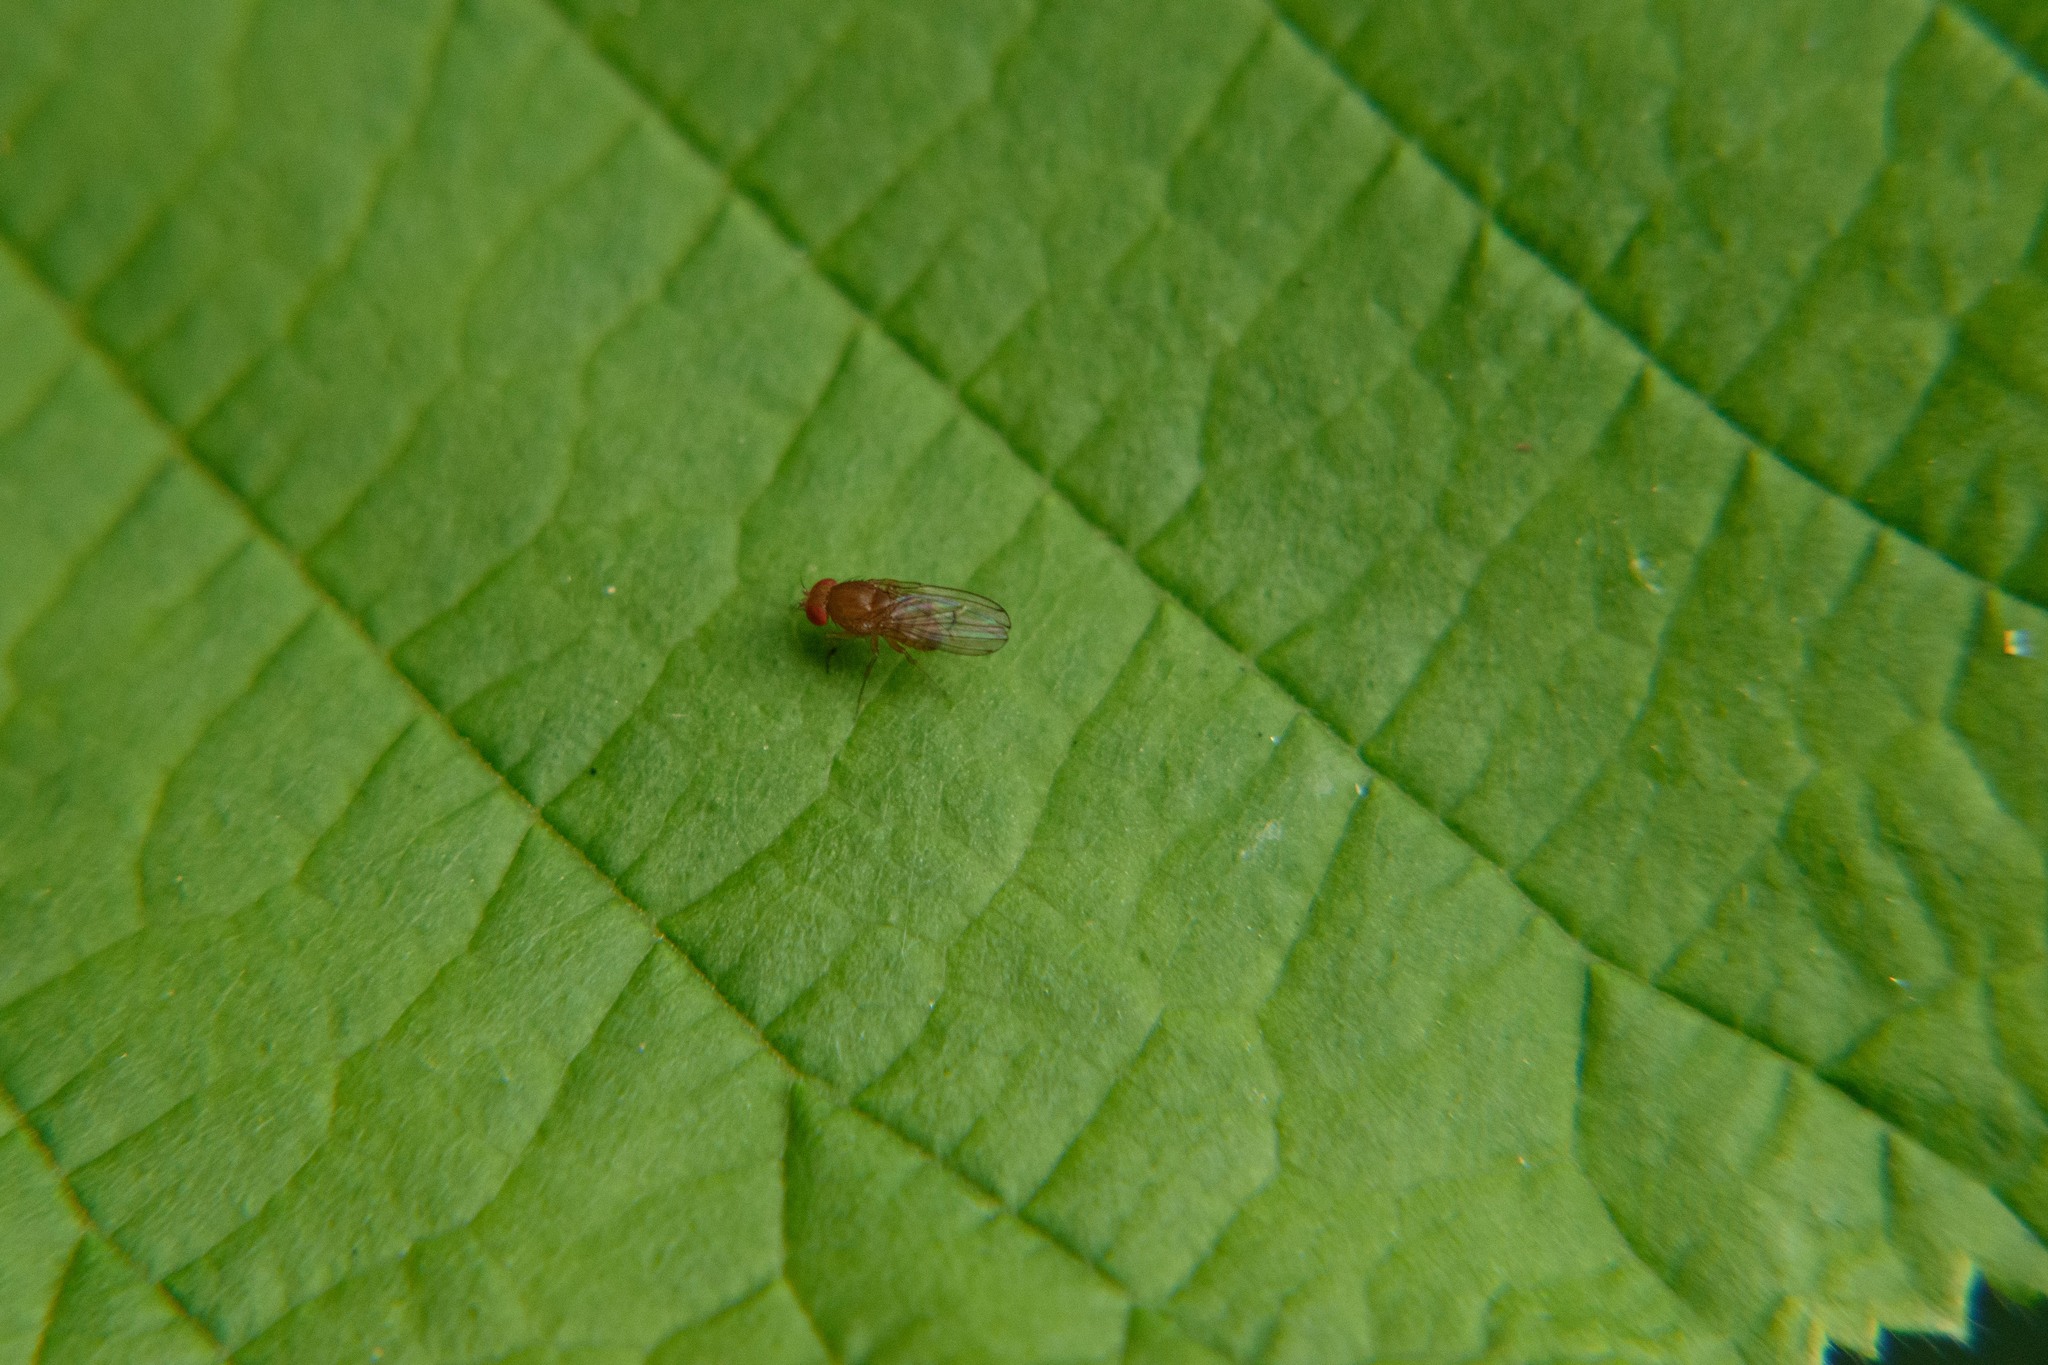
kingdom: Animalia
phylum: Arthropoda
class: Insecta
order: Diptera
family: Drosophilidae
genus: Drosophila
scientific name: Drosophila immigrans
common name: Pomace fly
